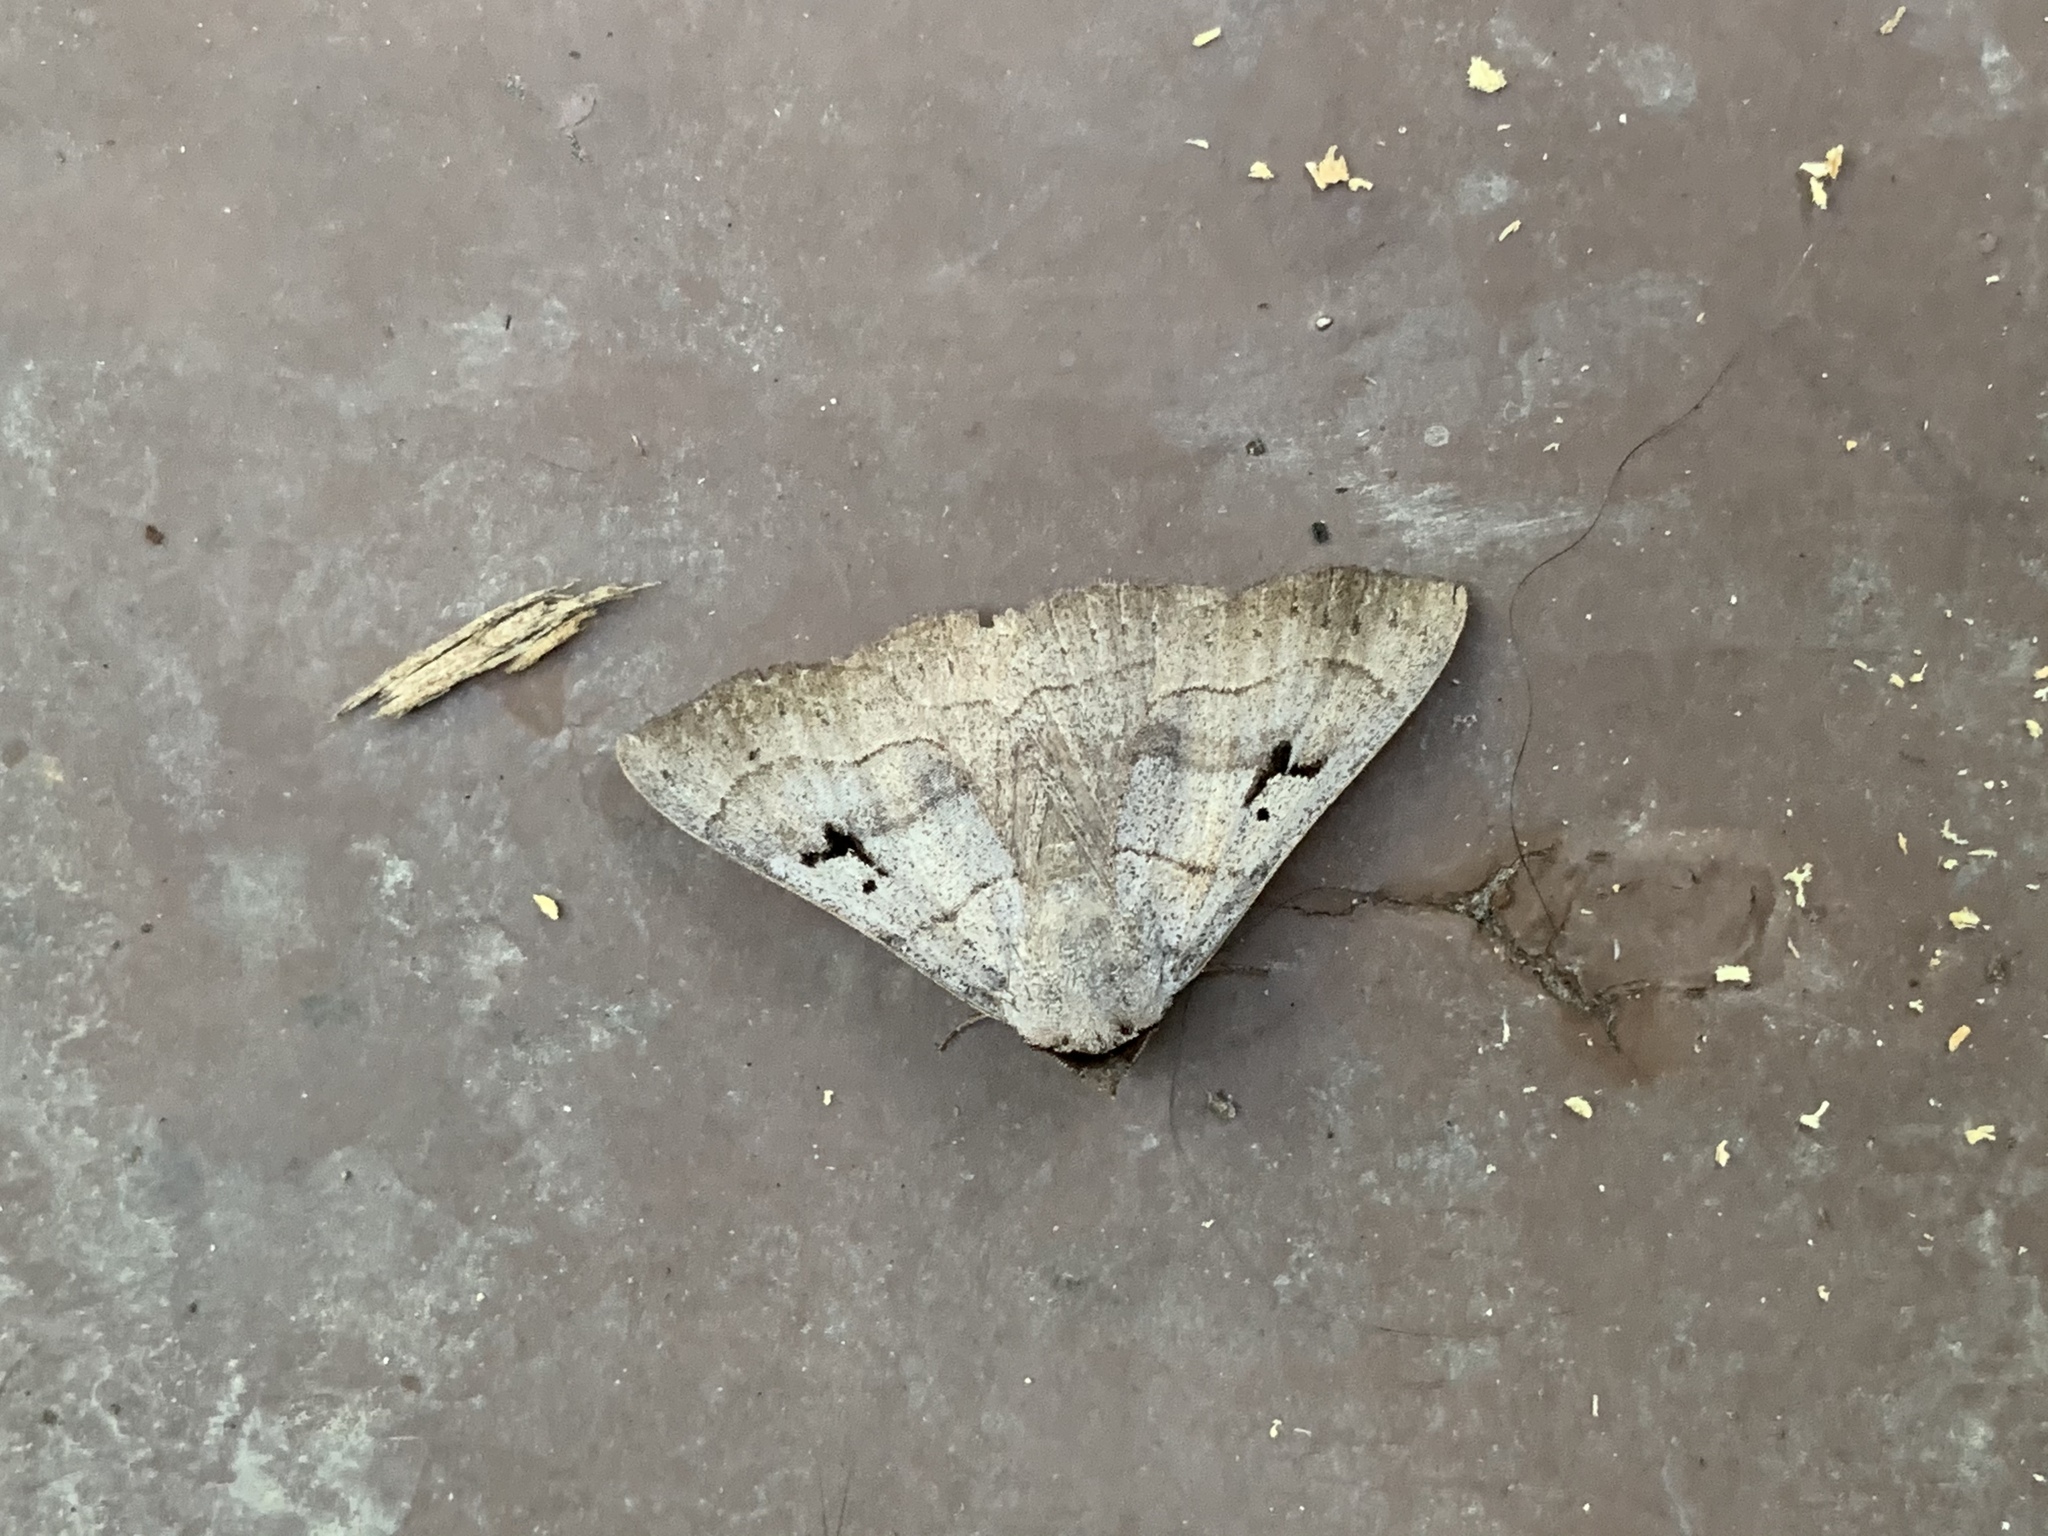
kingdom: Animalia
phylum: Arthropoda
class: Insecta
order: Lepidoptera
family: Erebidae
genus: Panopoda
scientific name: Panopoda carneicosta
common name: Brown panopoda moth
